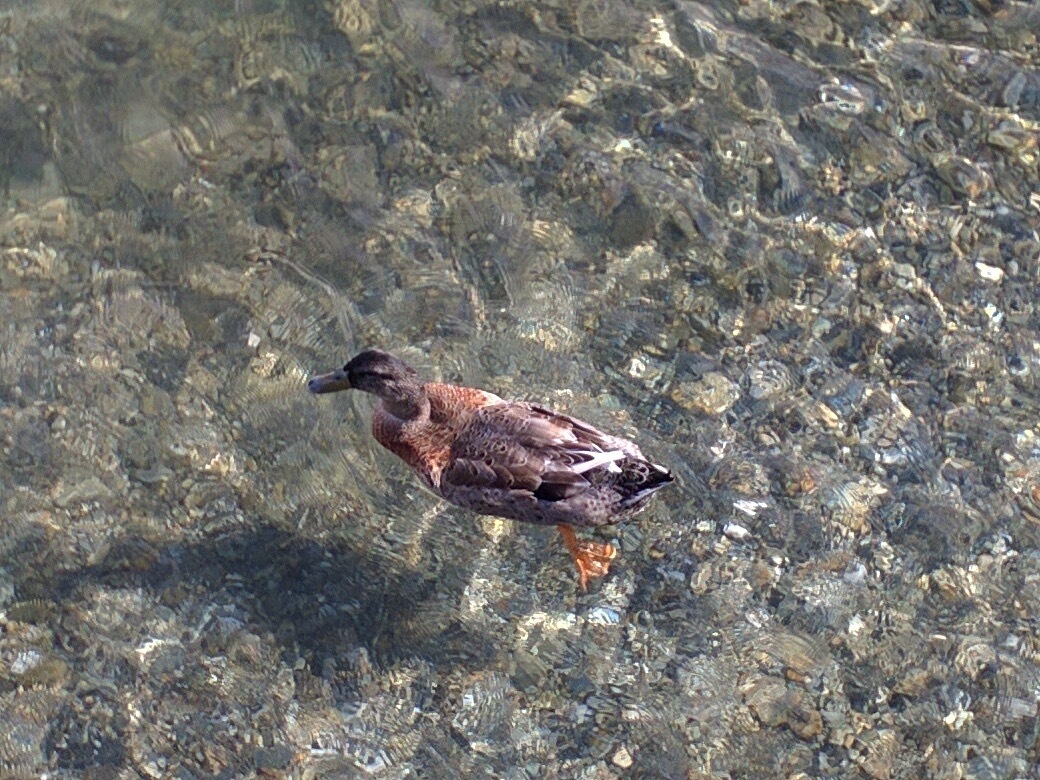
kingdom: Animalia
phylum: Chordata
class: Aves
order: Anseriformes
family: Anatidae
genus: Anas
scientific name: Anas
